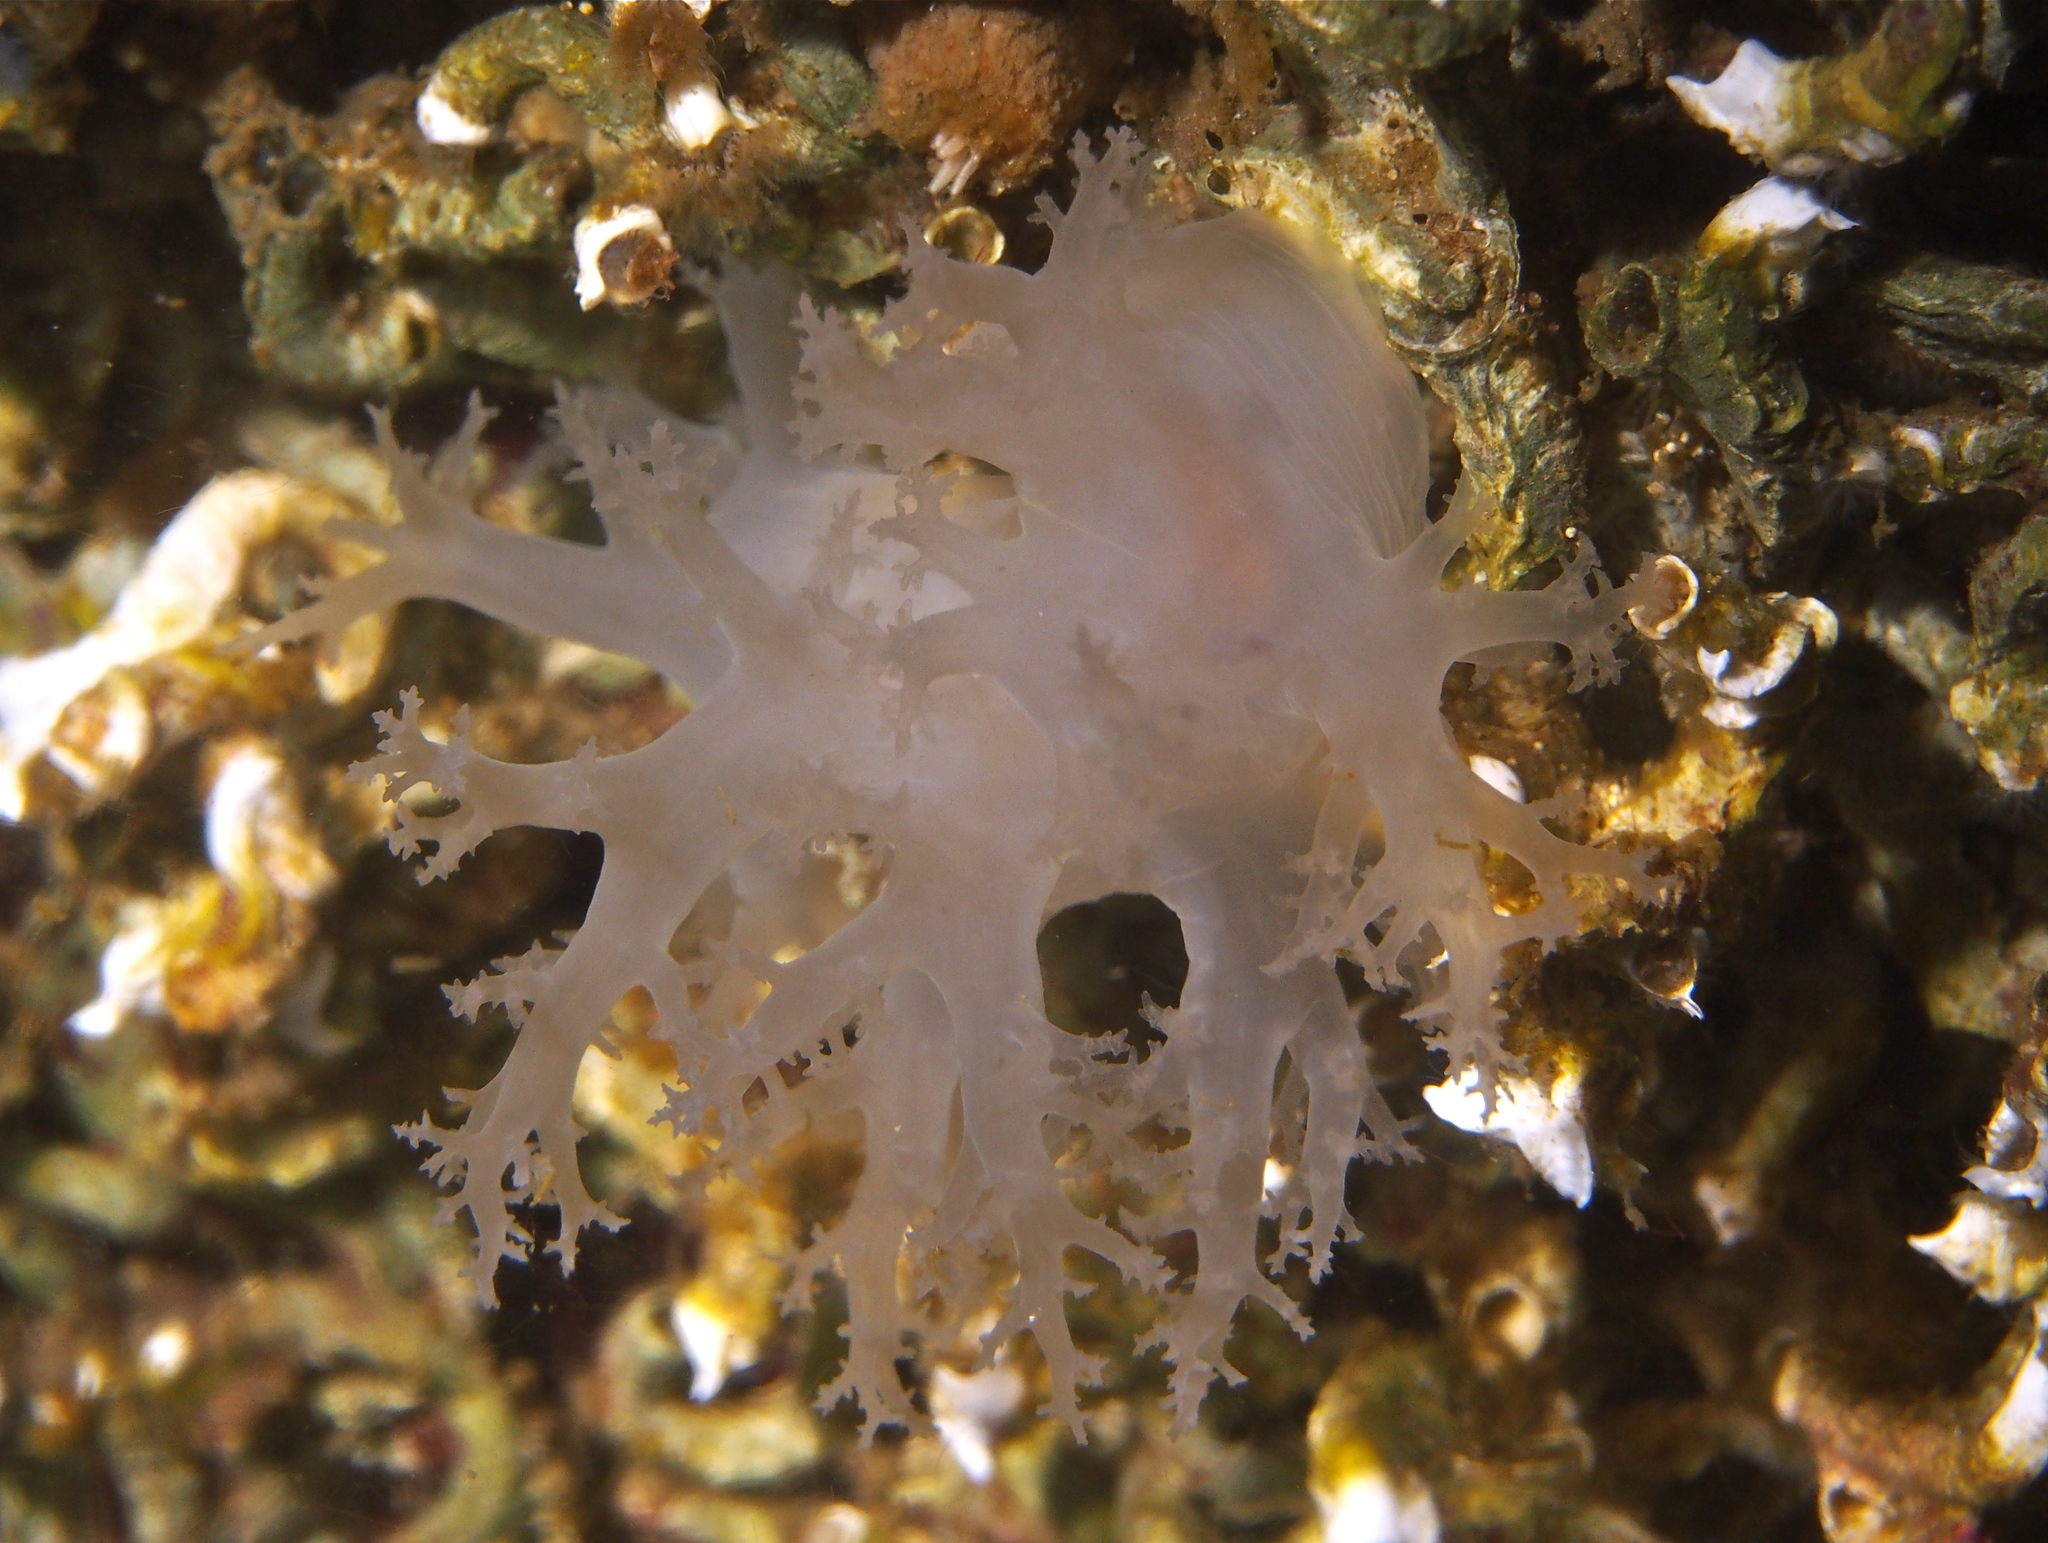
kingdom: Animalia
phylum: Mollusca
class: Gastropoda
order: Nudibranchia
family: Dendronotidae
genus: Dendronotus
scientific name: Dendronotus lacteus
